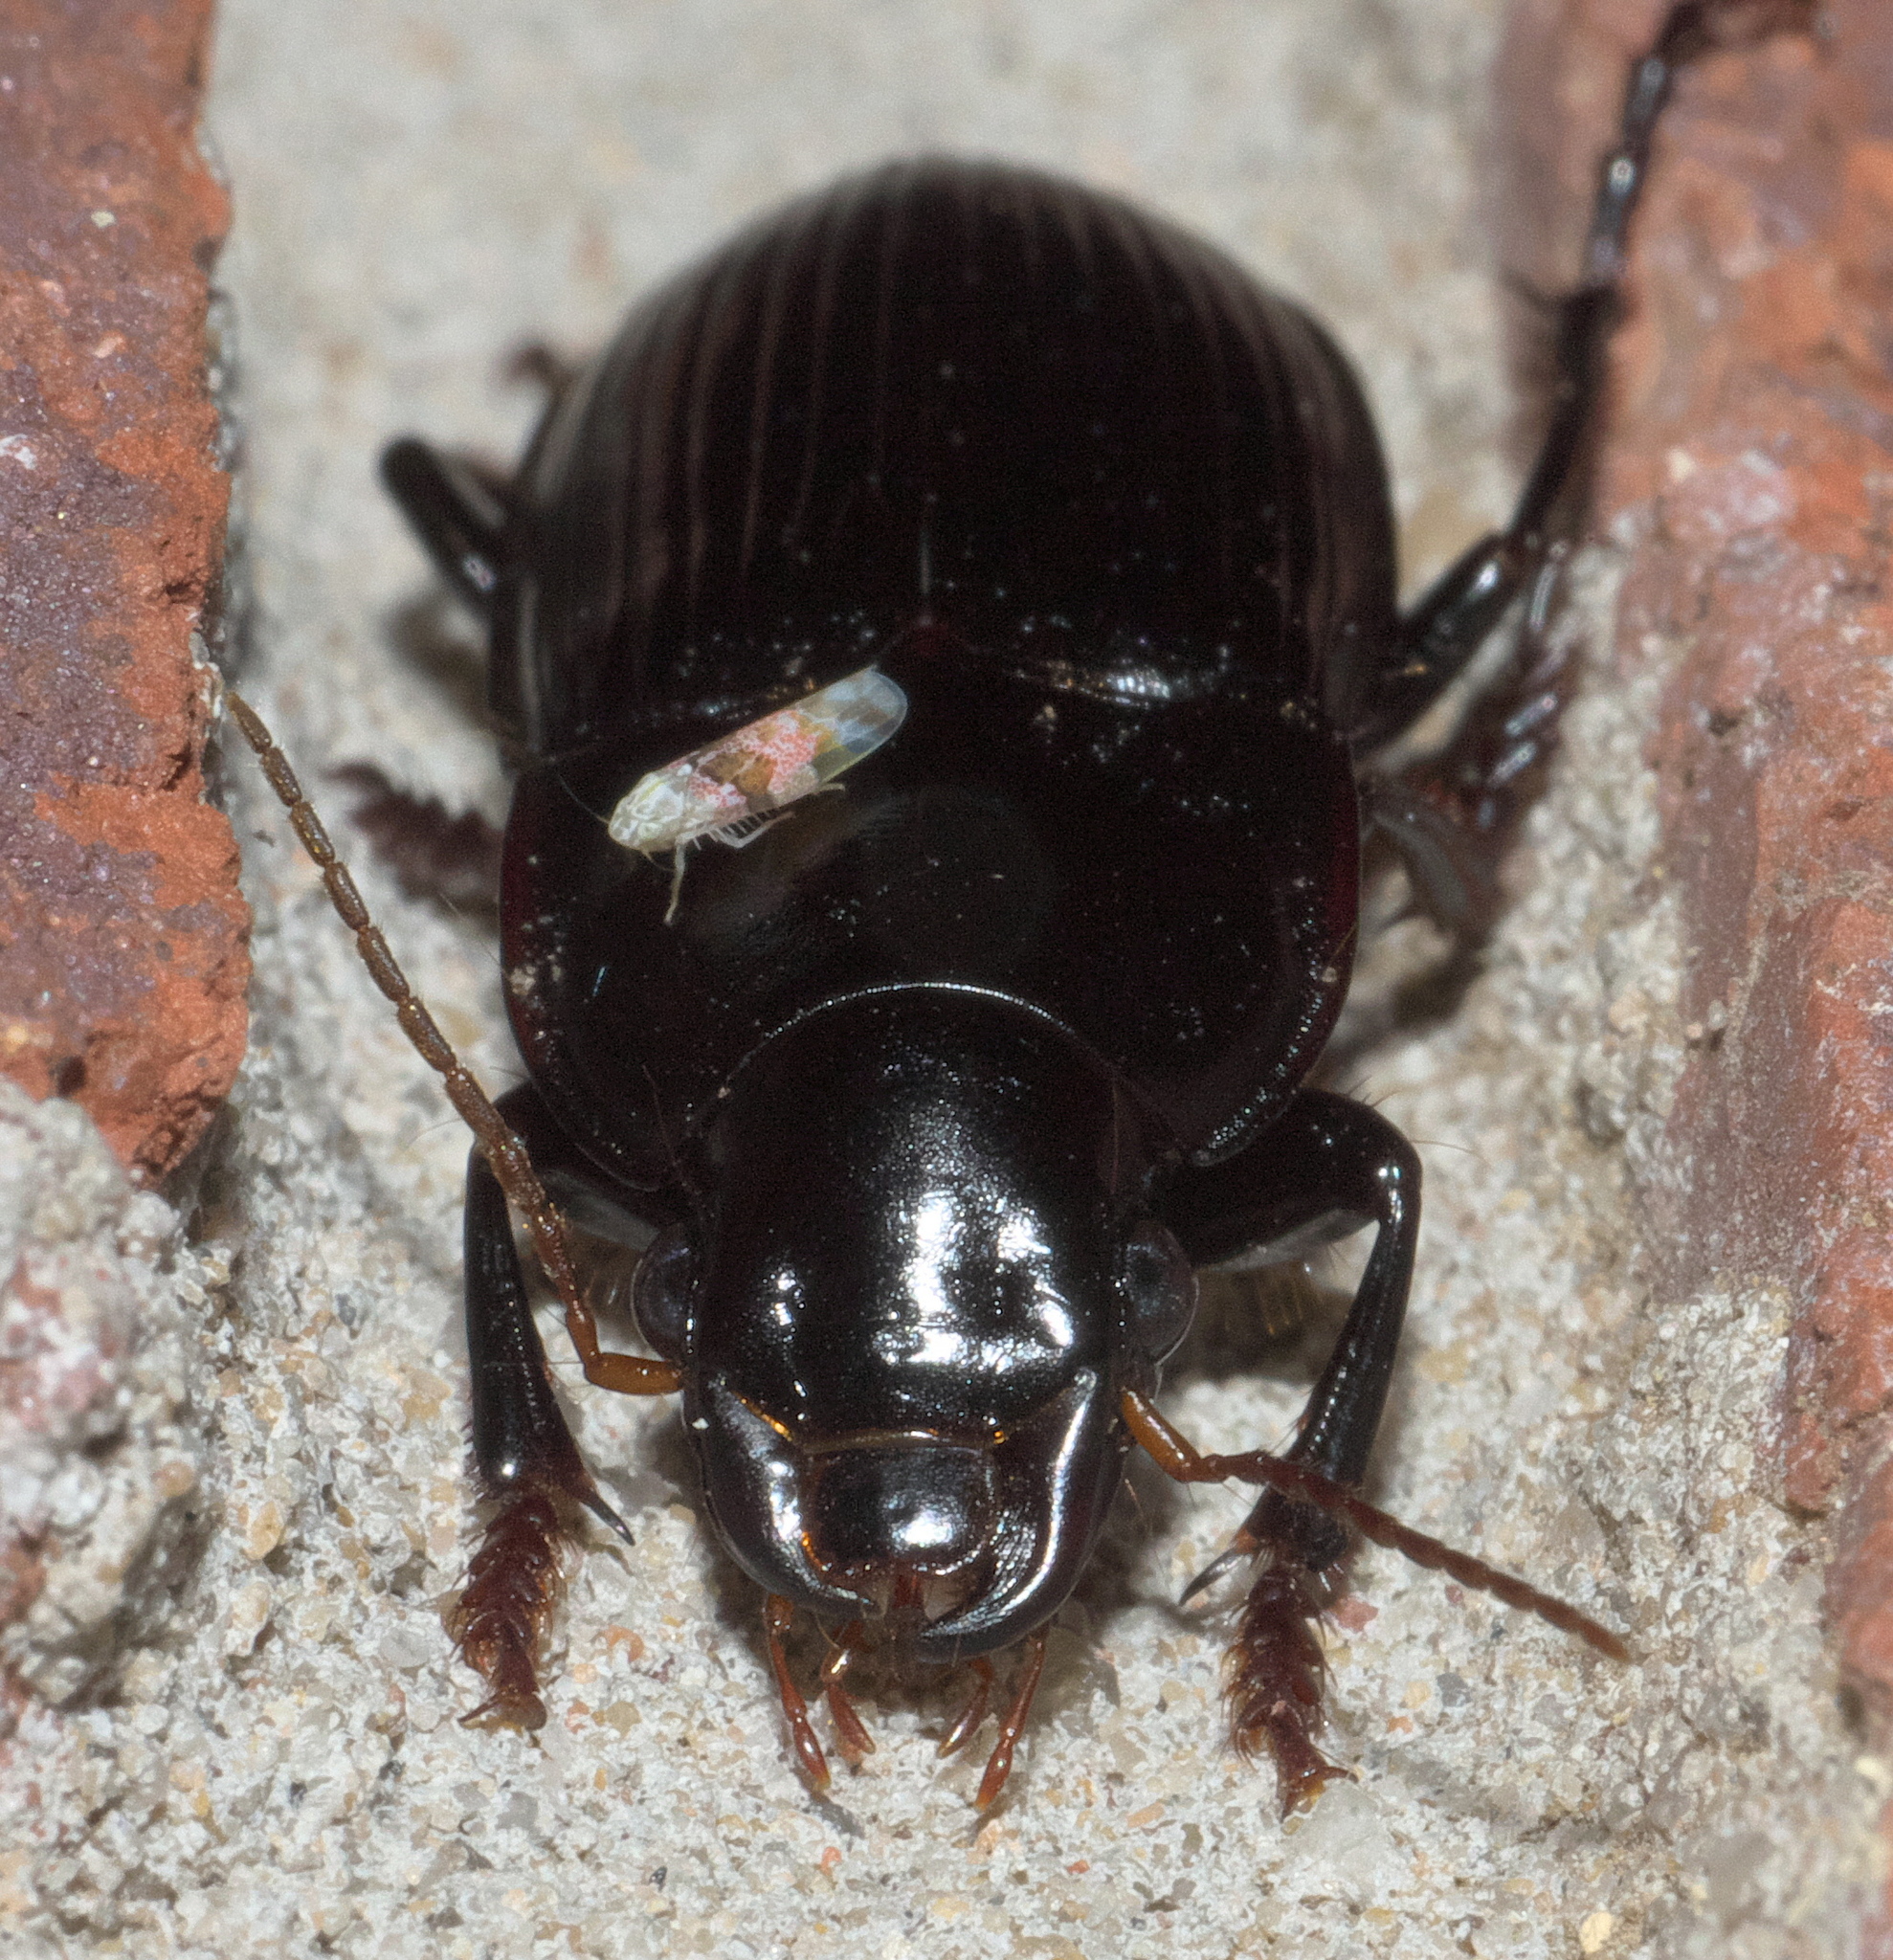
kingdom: Animalia
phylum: Arthropoda
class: Insecta
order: Coleoptera
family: Carabidae
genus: Harpalus
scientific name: Harpalus caliginosus
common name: Murky ground beetle
